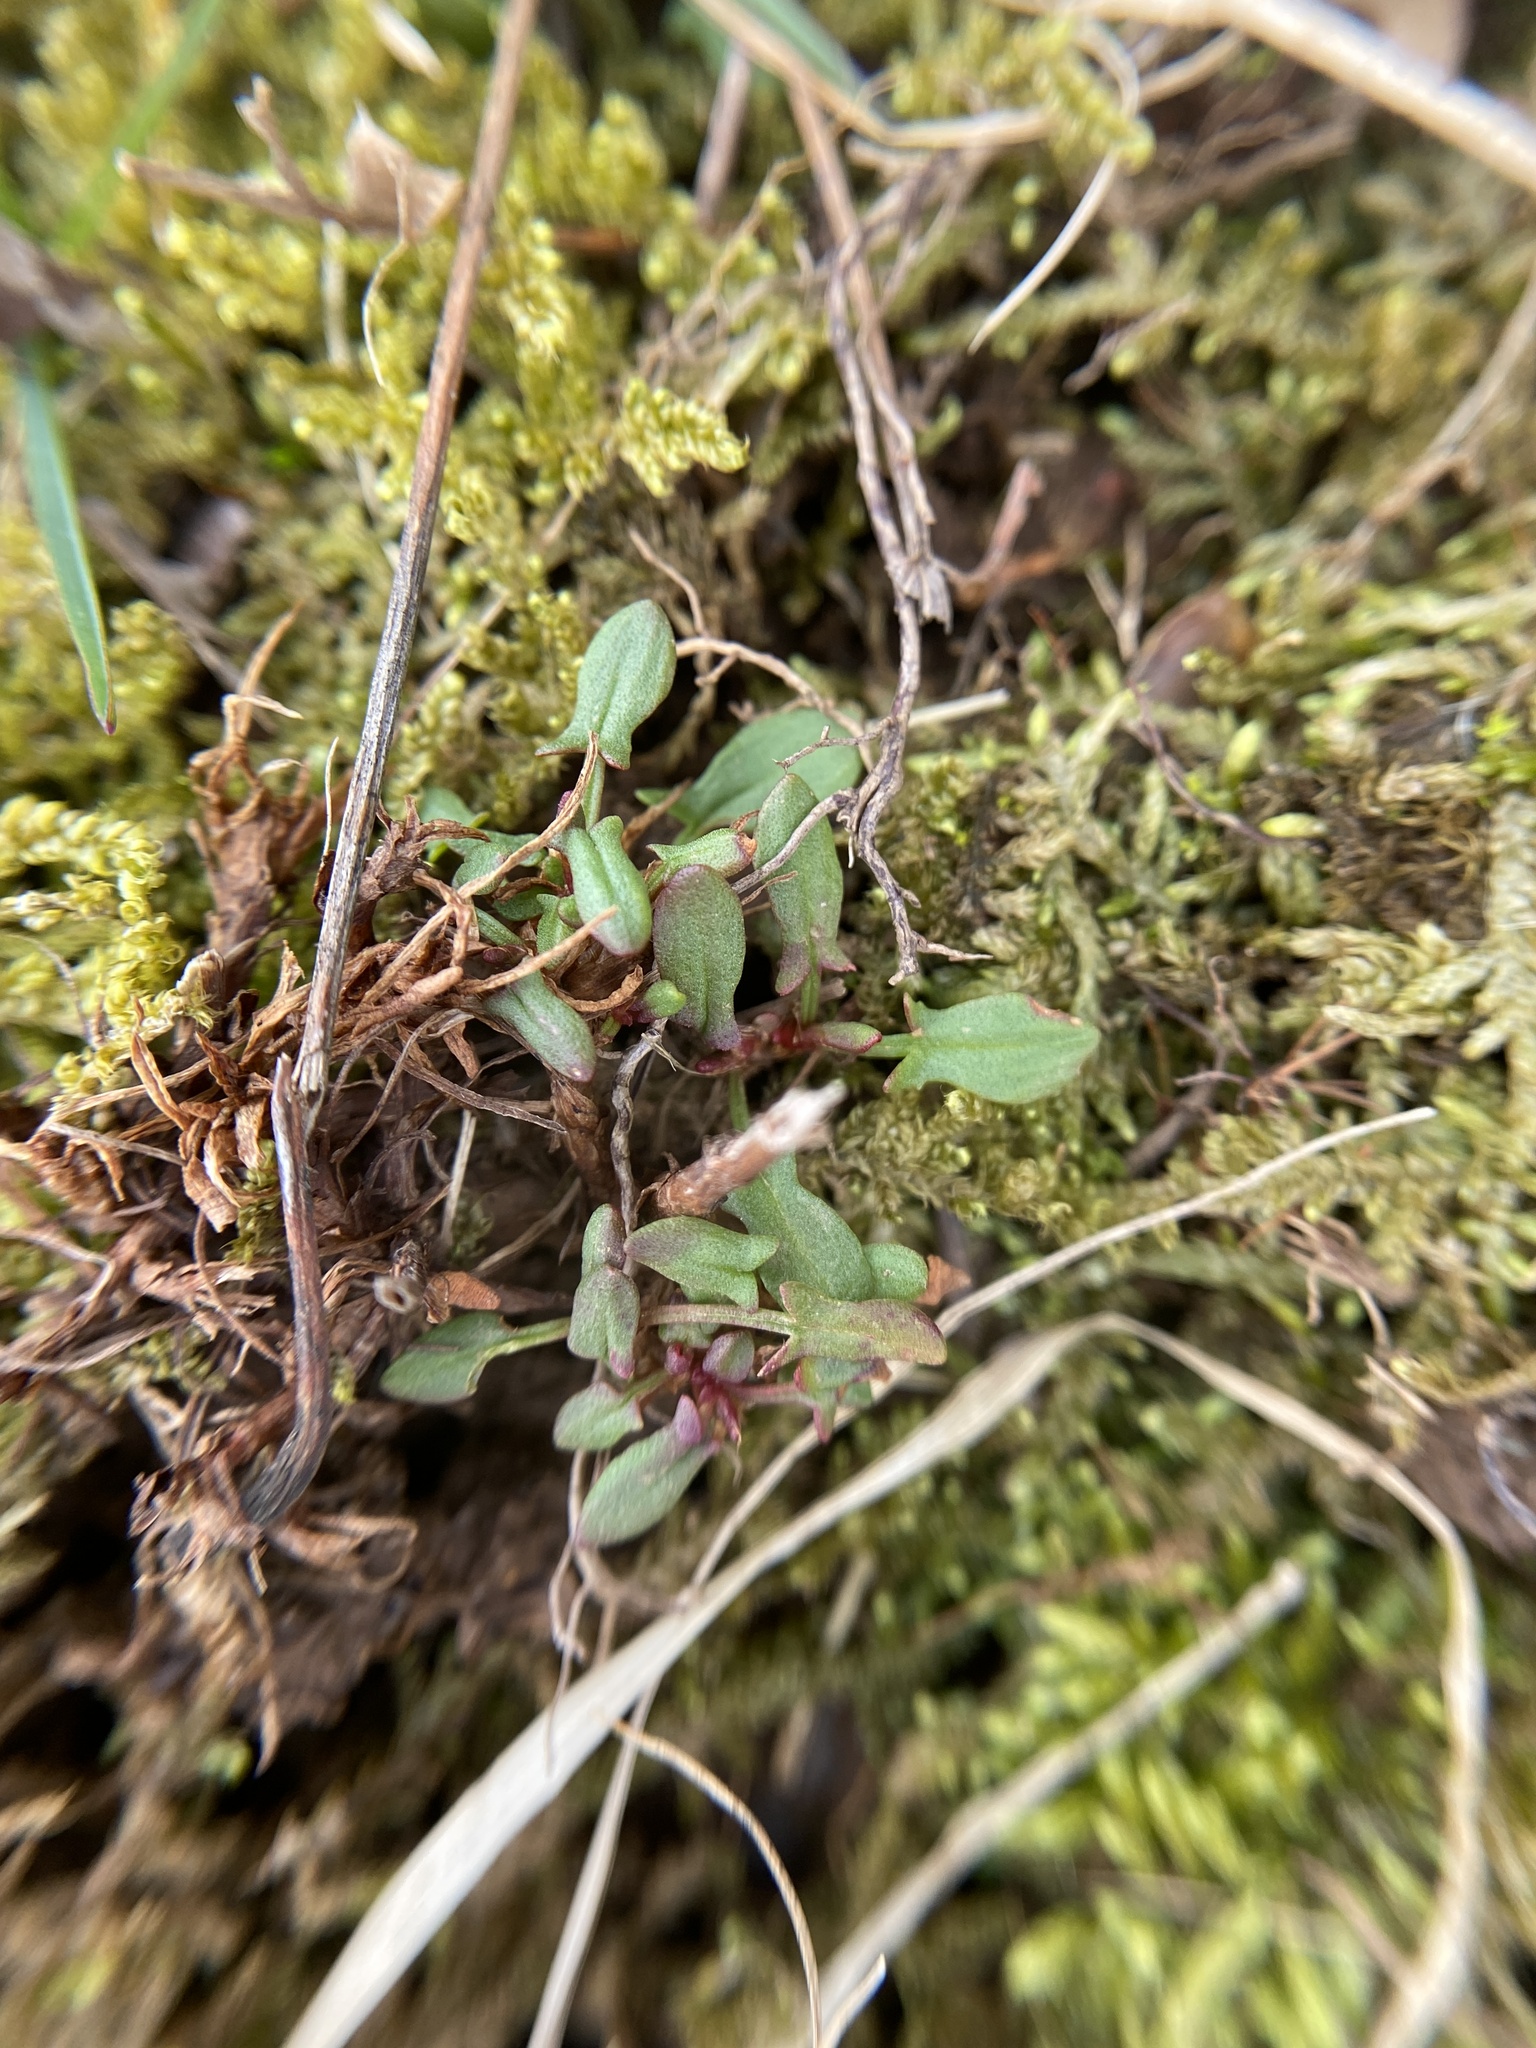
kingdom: Plantae
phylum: Tracheophyta
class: Magnoliopsida
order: Caryophyllales
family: Polygonaceae
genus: Rumex
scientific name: Rumex acetosella
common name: Common sheep sorrel
